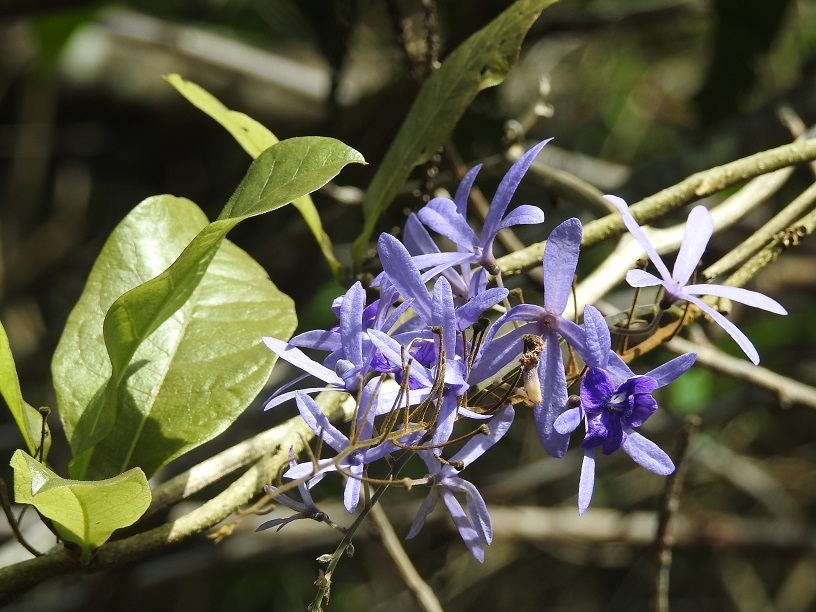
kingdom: Plantae
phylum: Tracheophyta
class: Magnoliopsida
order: Lamiales
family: Verbenaceae
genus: Petrea
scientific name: Petrea volubilis
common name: Queen's-wreath
